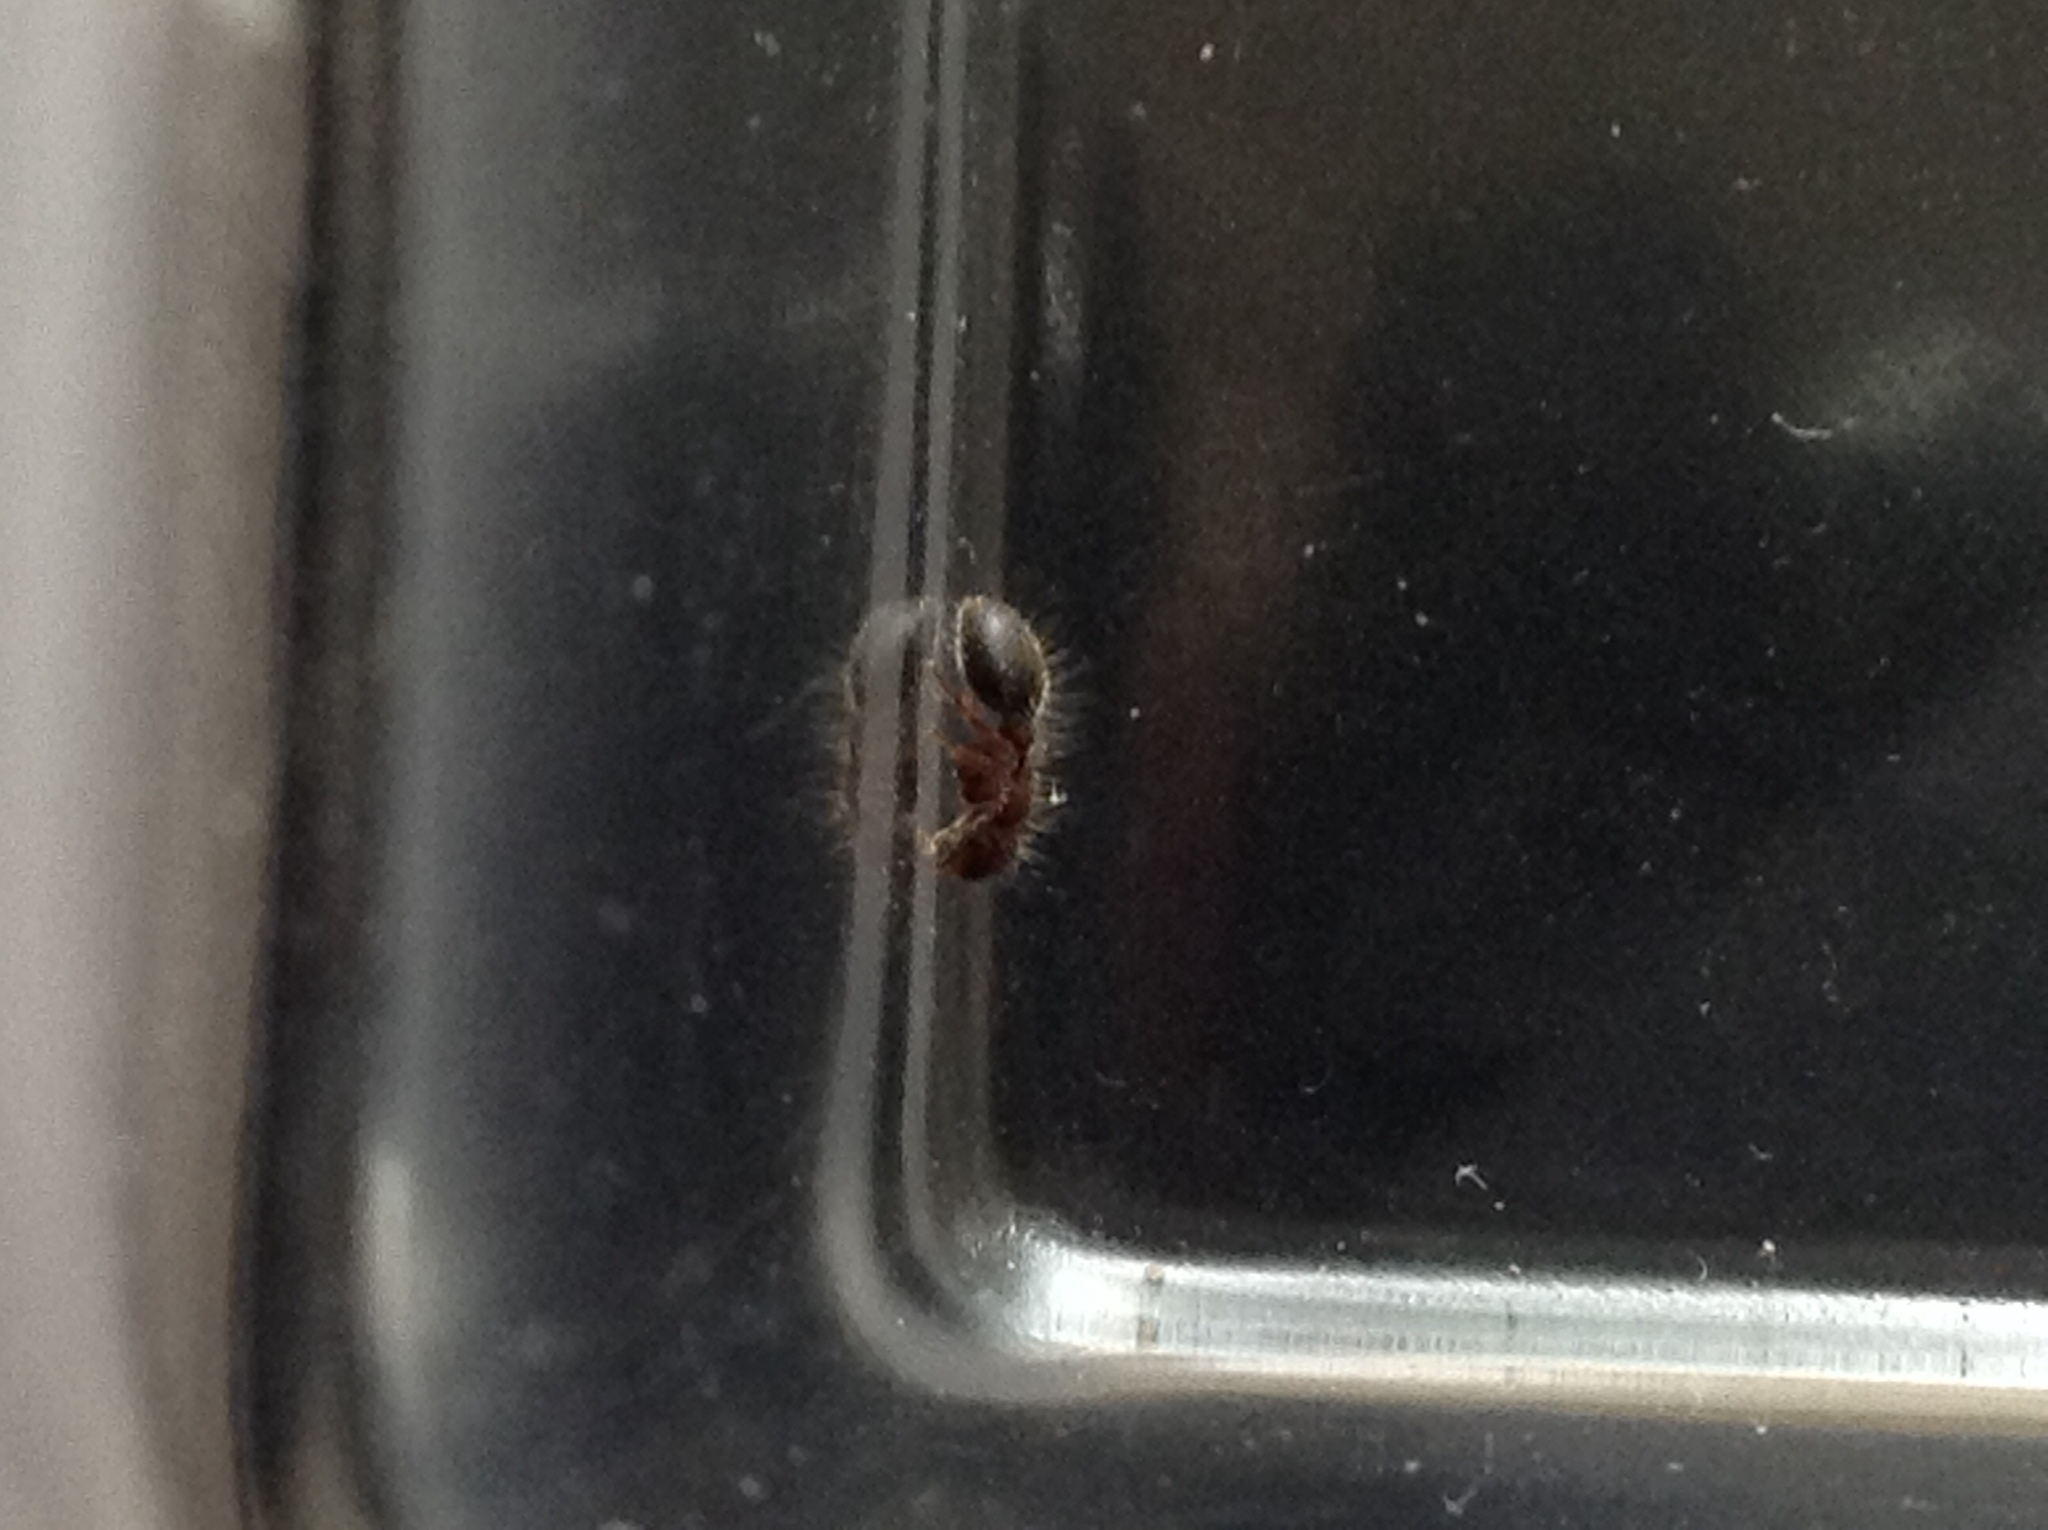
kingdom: Animalia
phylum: Arthropoda
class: Insecta
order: Hymenoptera
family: Formicidae
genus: Meranoplus
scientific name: Meranoplus bicolor
